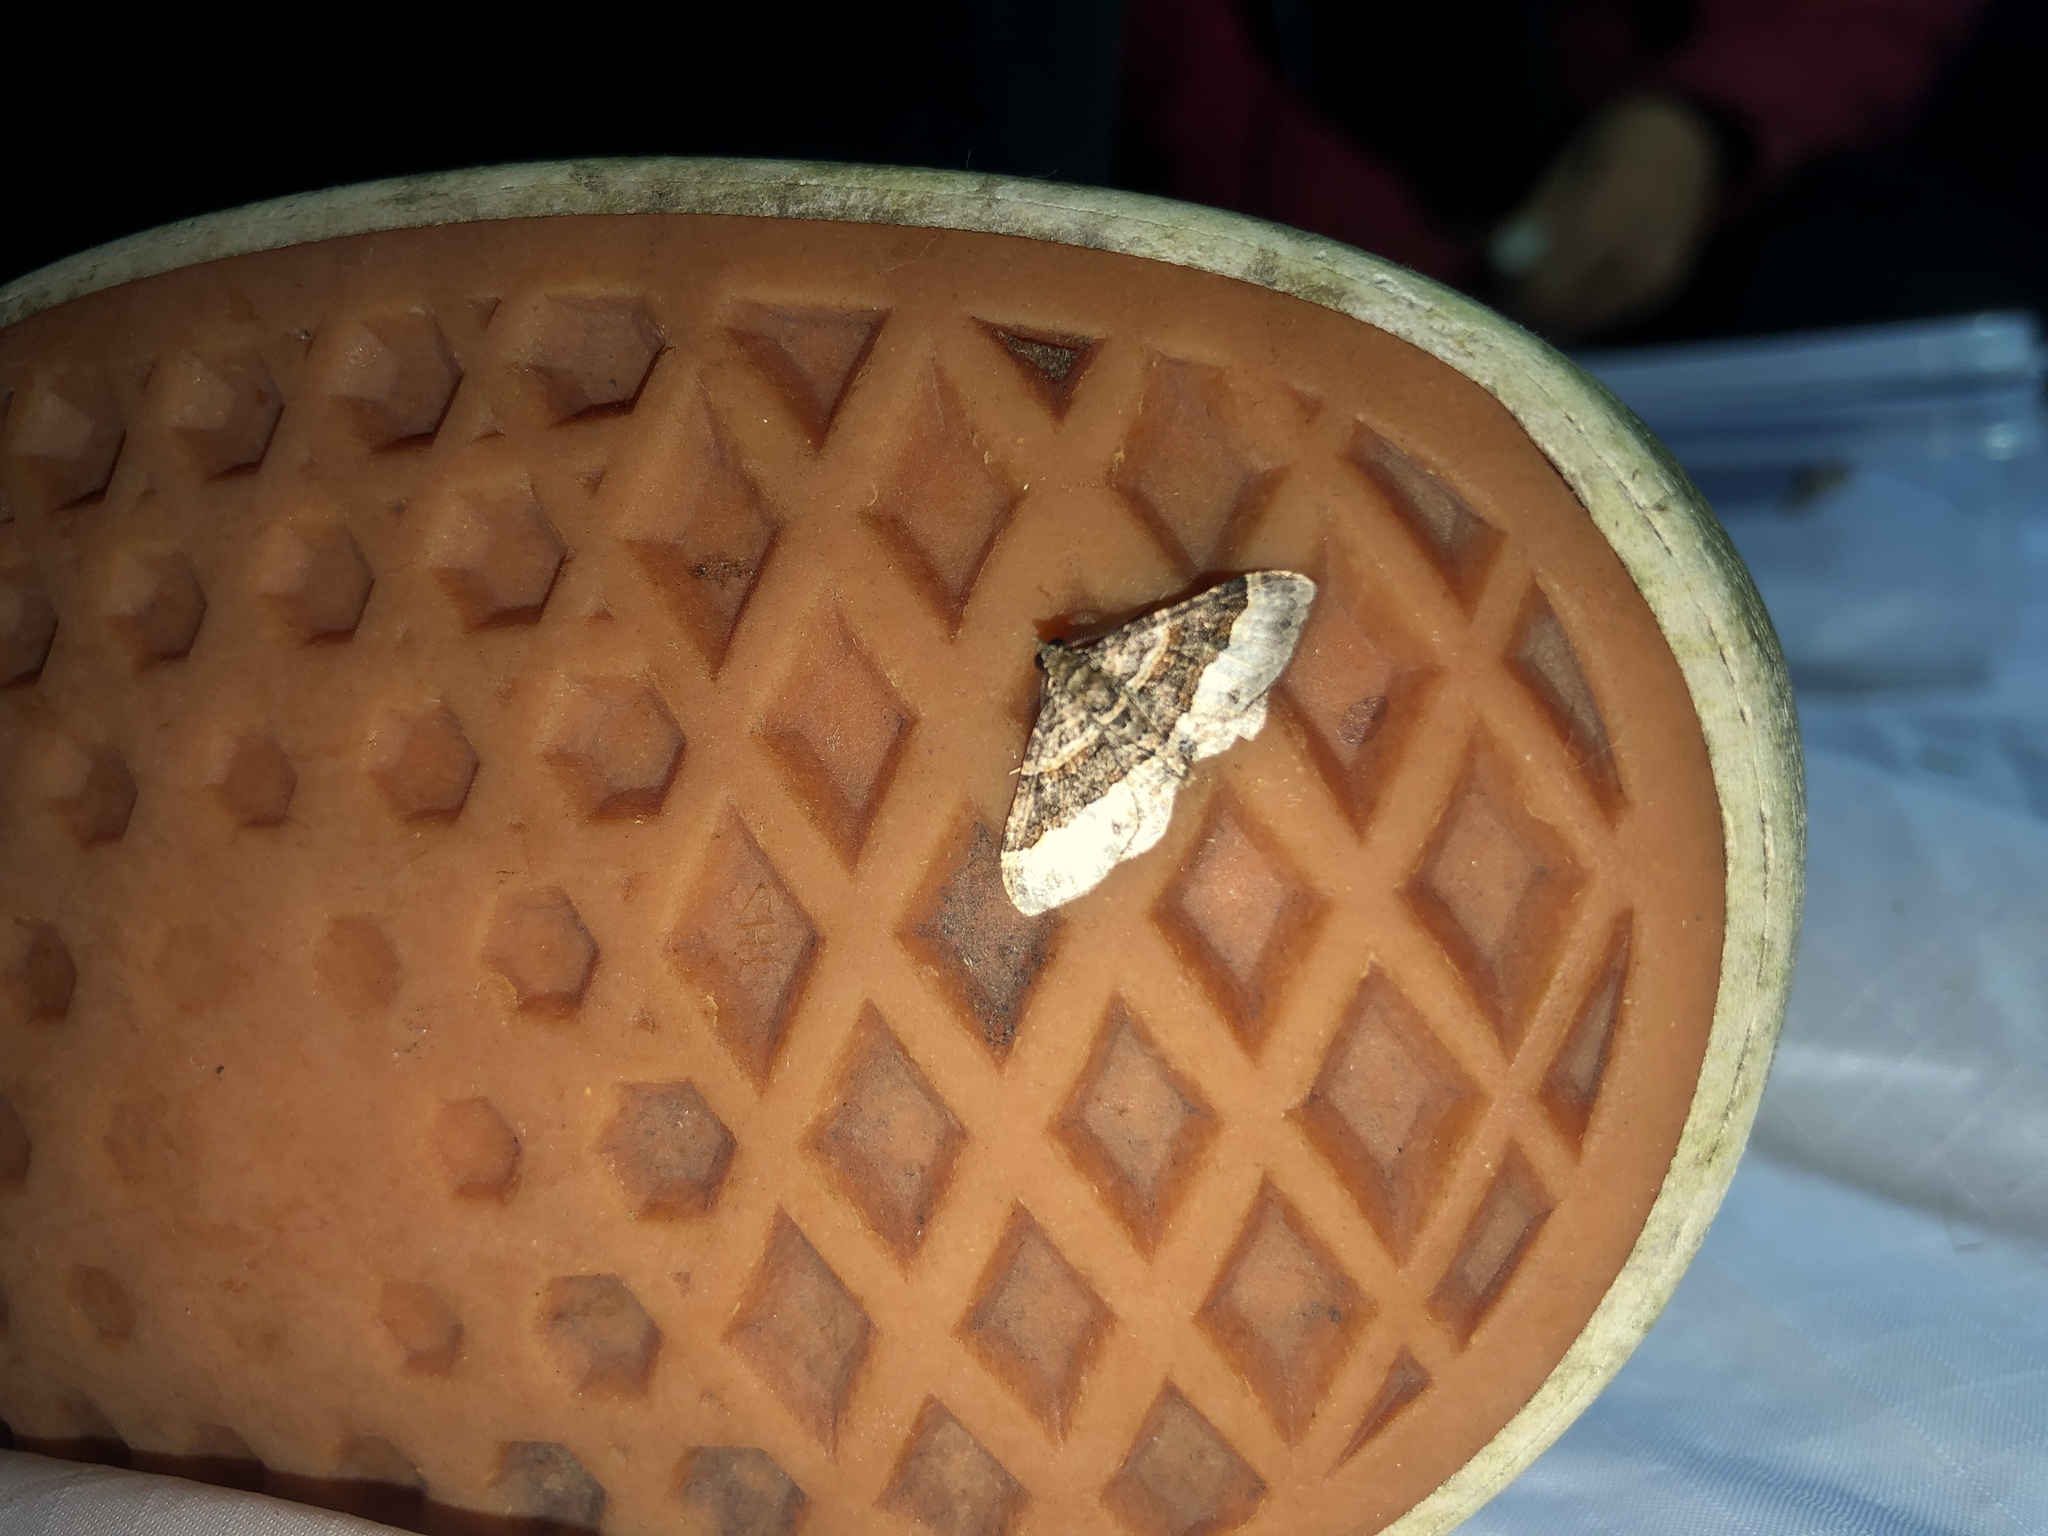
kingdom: Animalia
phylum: Arthropoda
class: Insecta
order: Lepidoptera
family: Geometridae
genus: Epyaxa
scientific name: Epyaxa lucidata
